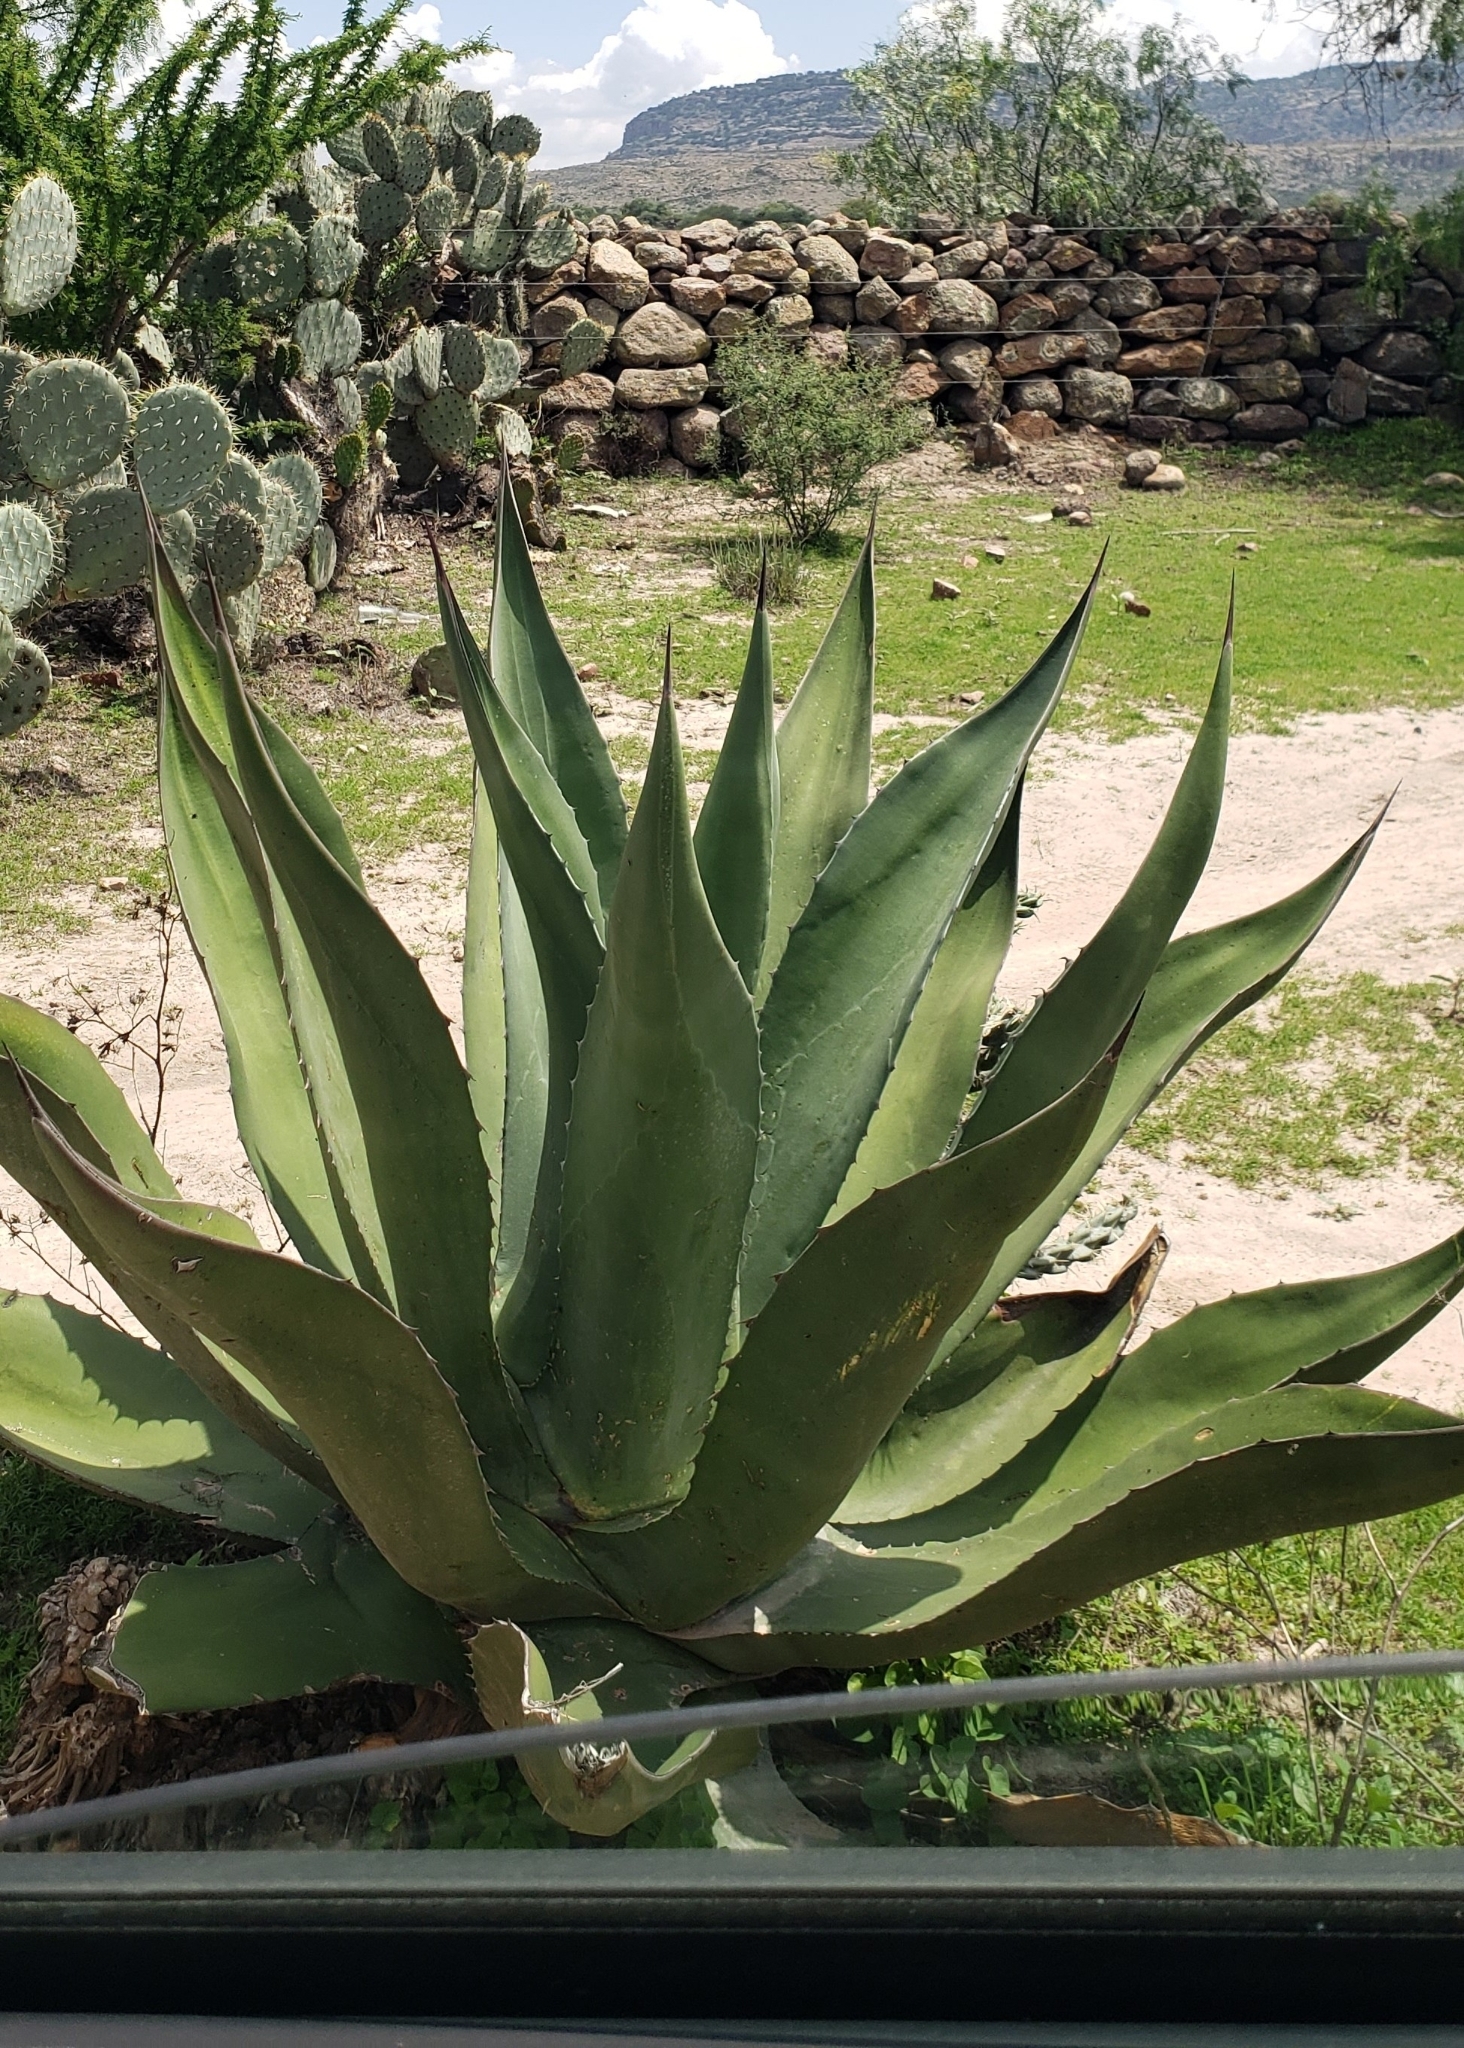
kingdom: Plantae
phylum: Tracheophyta
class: Liliopsida
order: Asparagales
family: Asparagaceae
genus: Agave
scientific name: Agave salmiana
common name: Pulque agave
